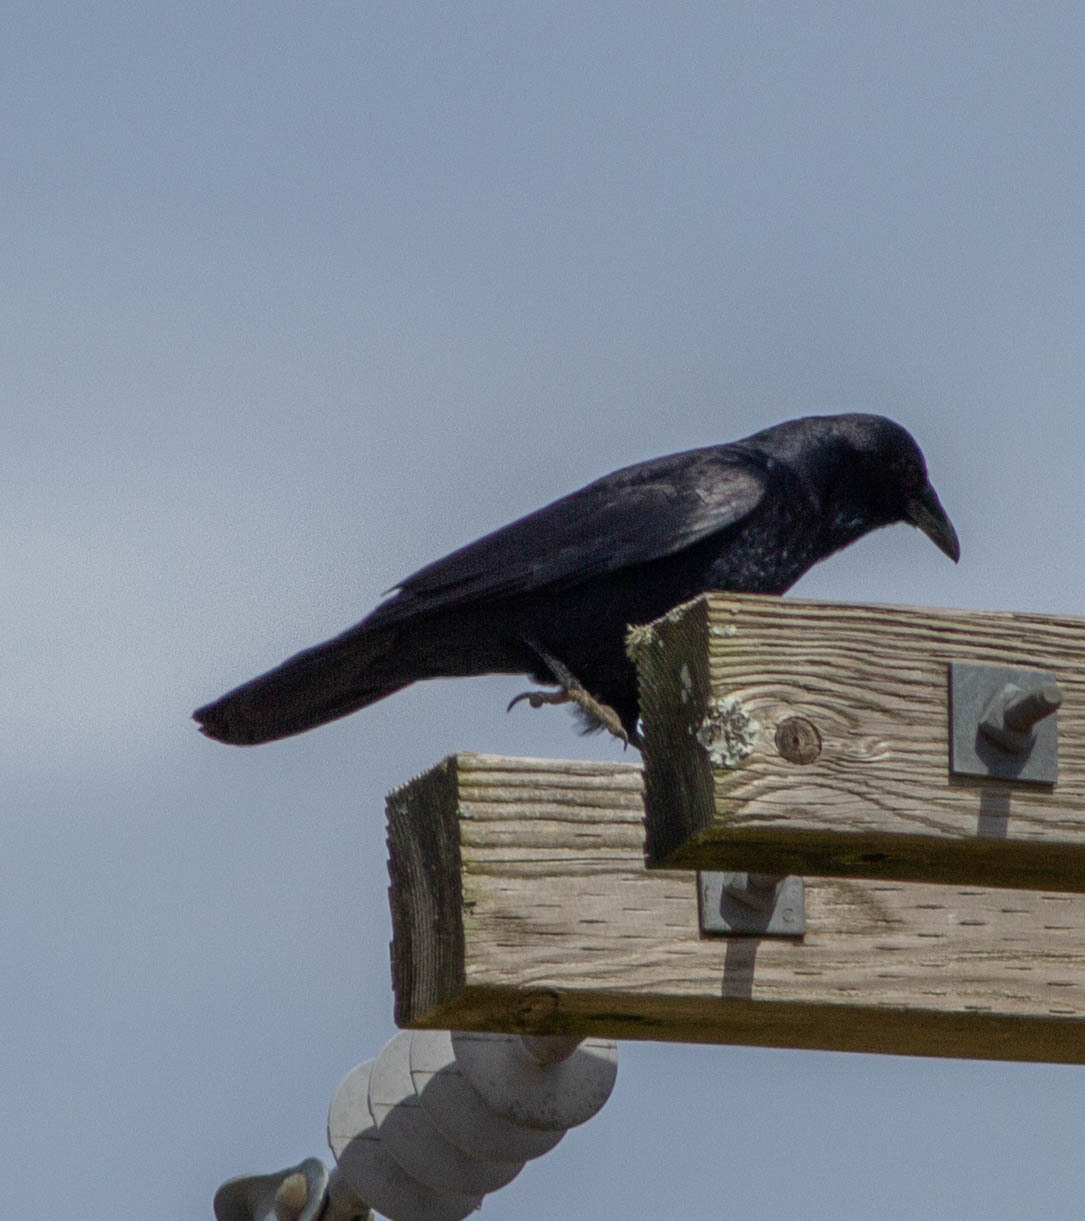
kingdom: Animalia
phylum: Chordata
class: Aves
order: Passeriformes
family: Corvidae
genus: Corvus
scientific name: Corvus ossifragus
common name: Fish crow
